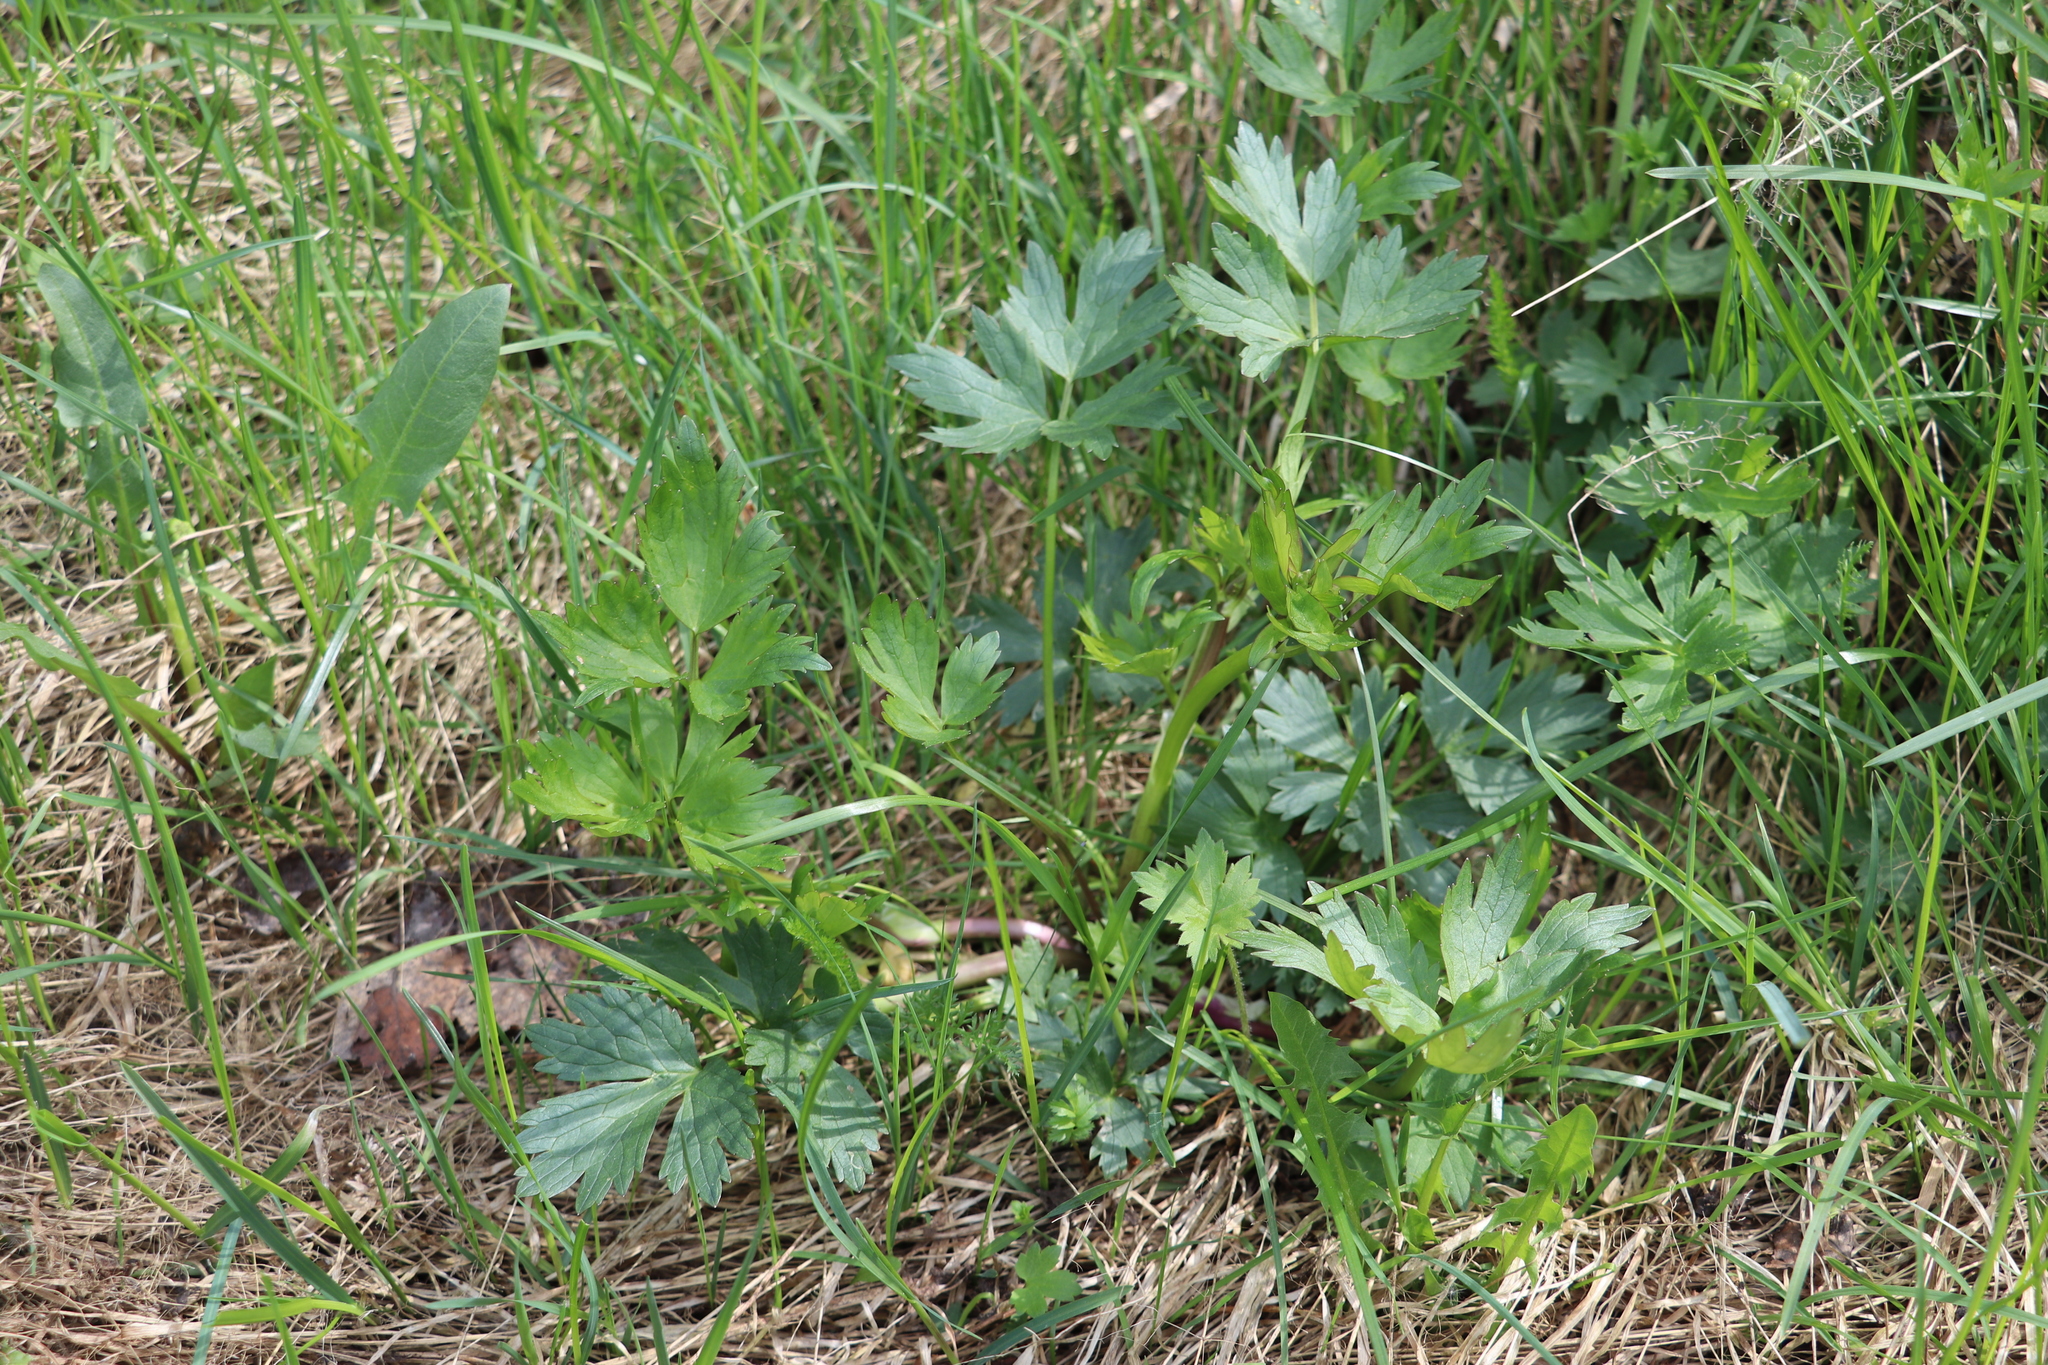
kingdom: Plantae
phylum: Tracheophyta
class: Magnoliopsida
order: Ranunculales
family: Ranunculaceae
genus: Ranunculus
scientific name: Ranunculus repens
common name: Creeping buttercup
